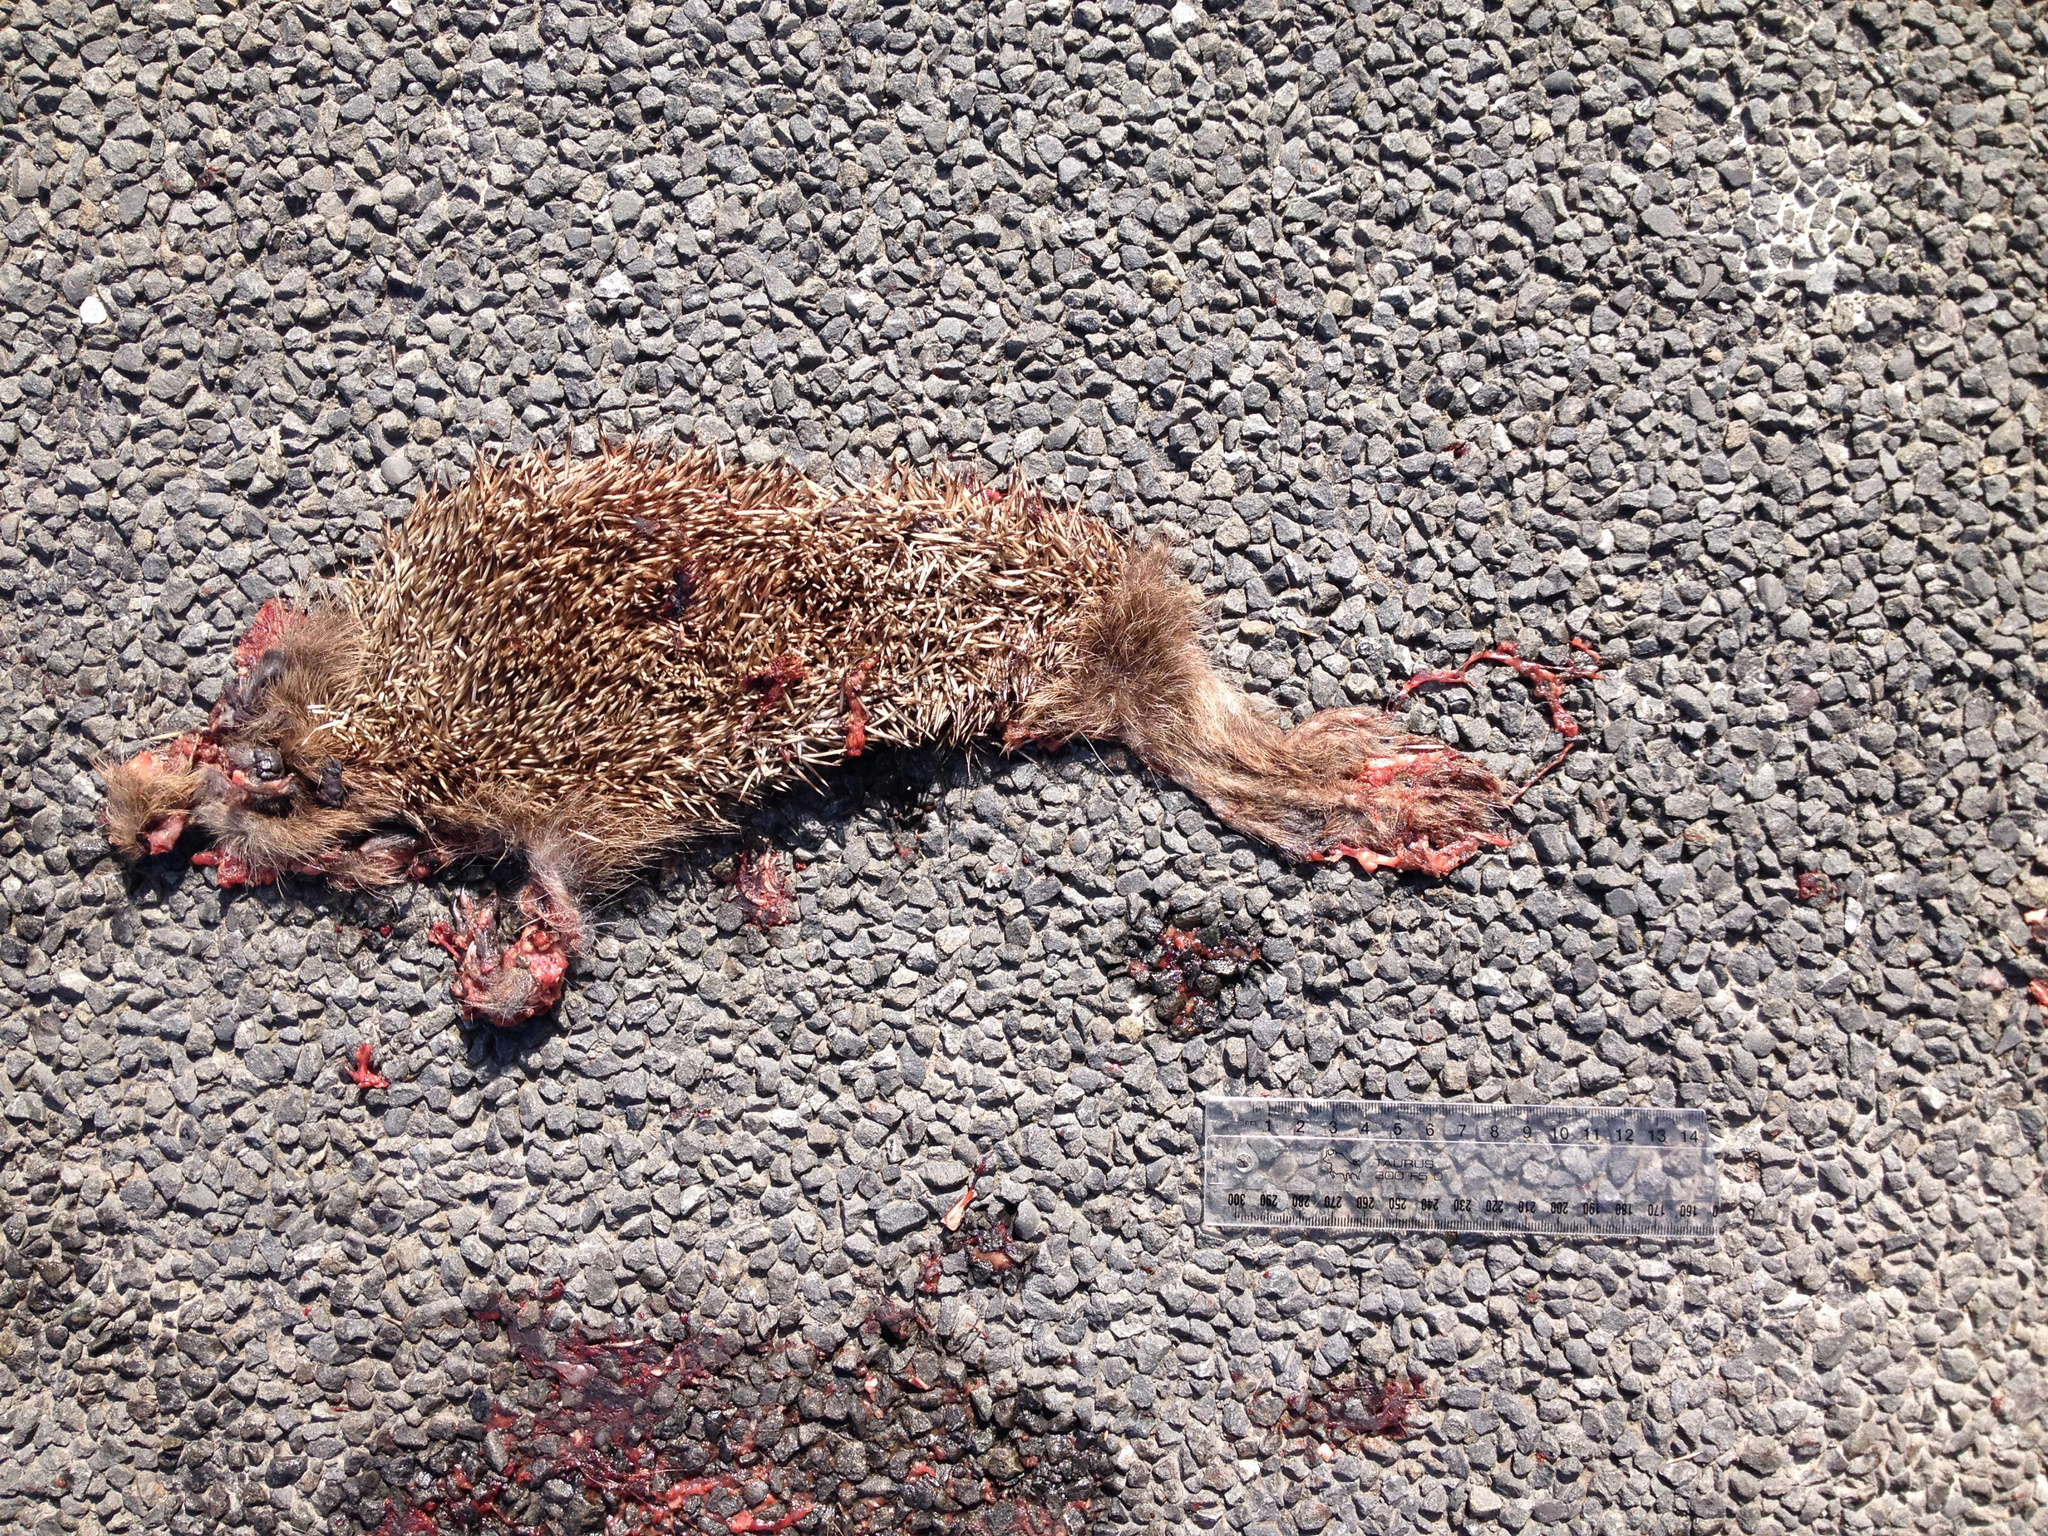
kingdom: Animalia
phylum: Chordata
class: Mammalia
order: Erinaceomorpha
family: Erinaceidae
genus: Erinaceus
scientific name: Erinaceus europaeus
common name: West european hedgehog
